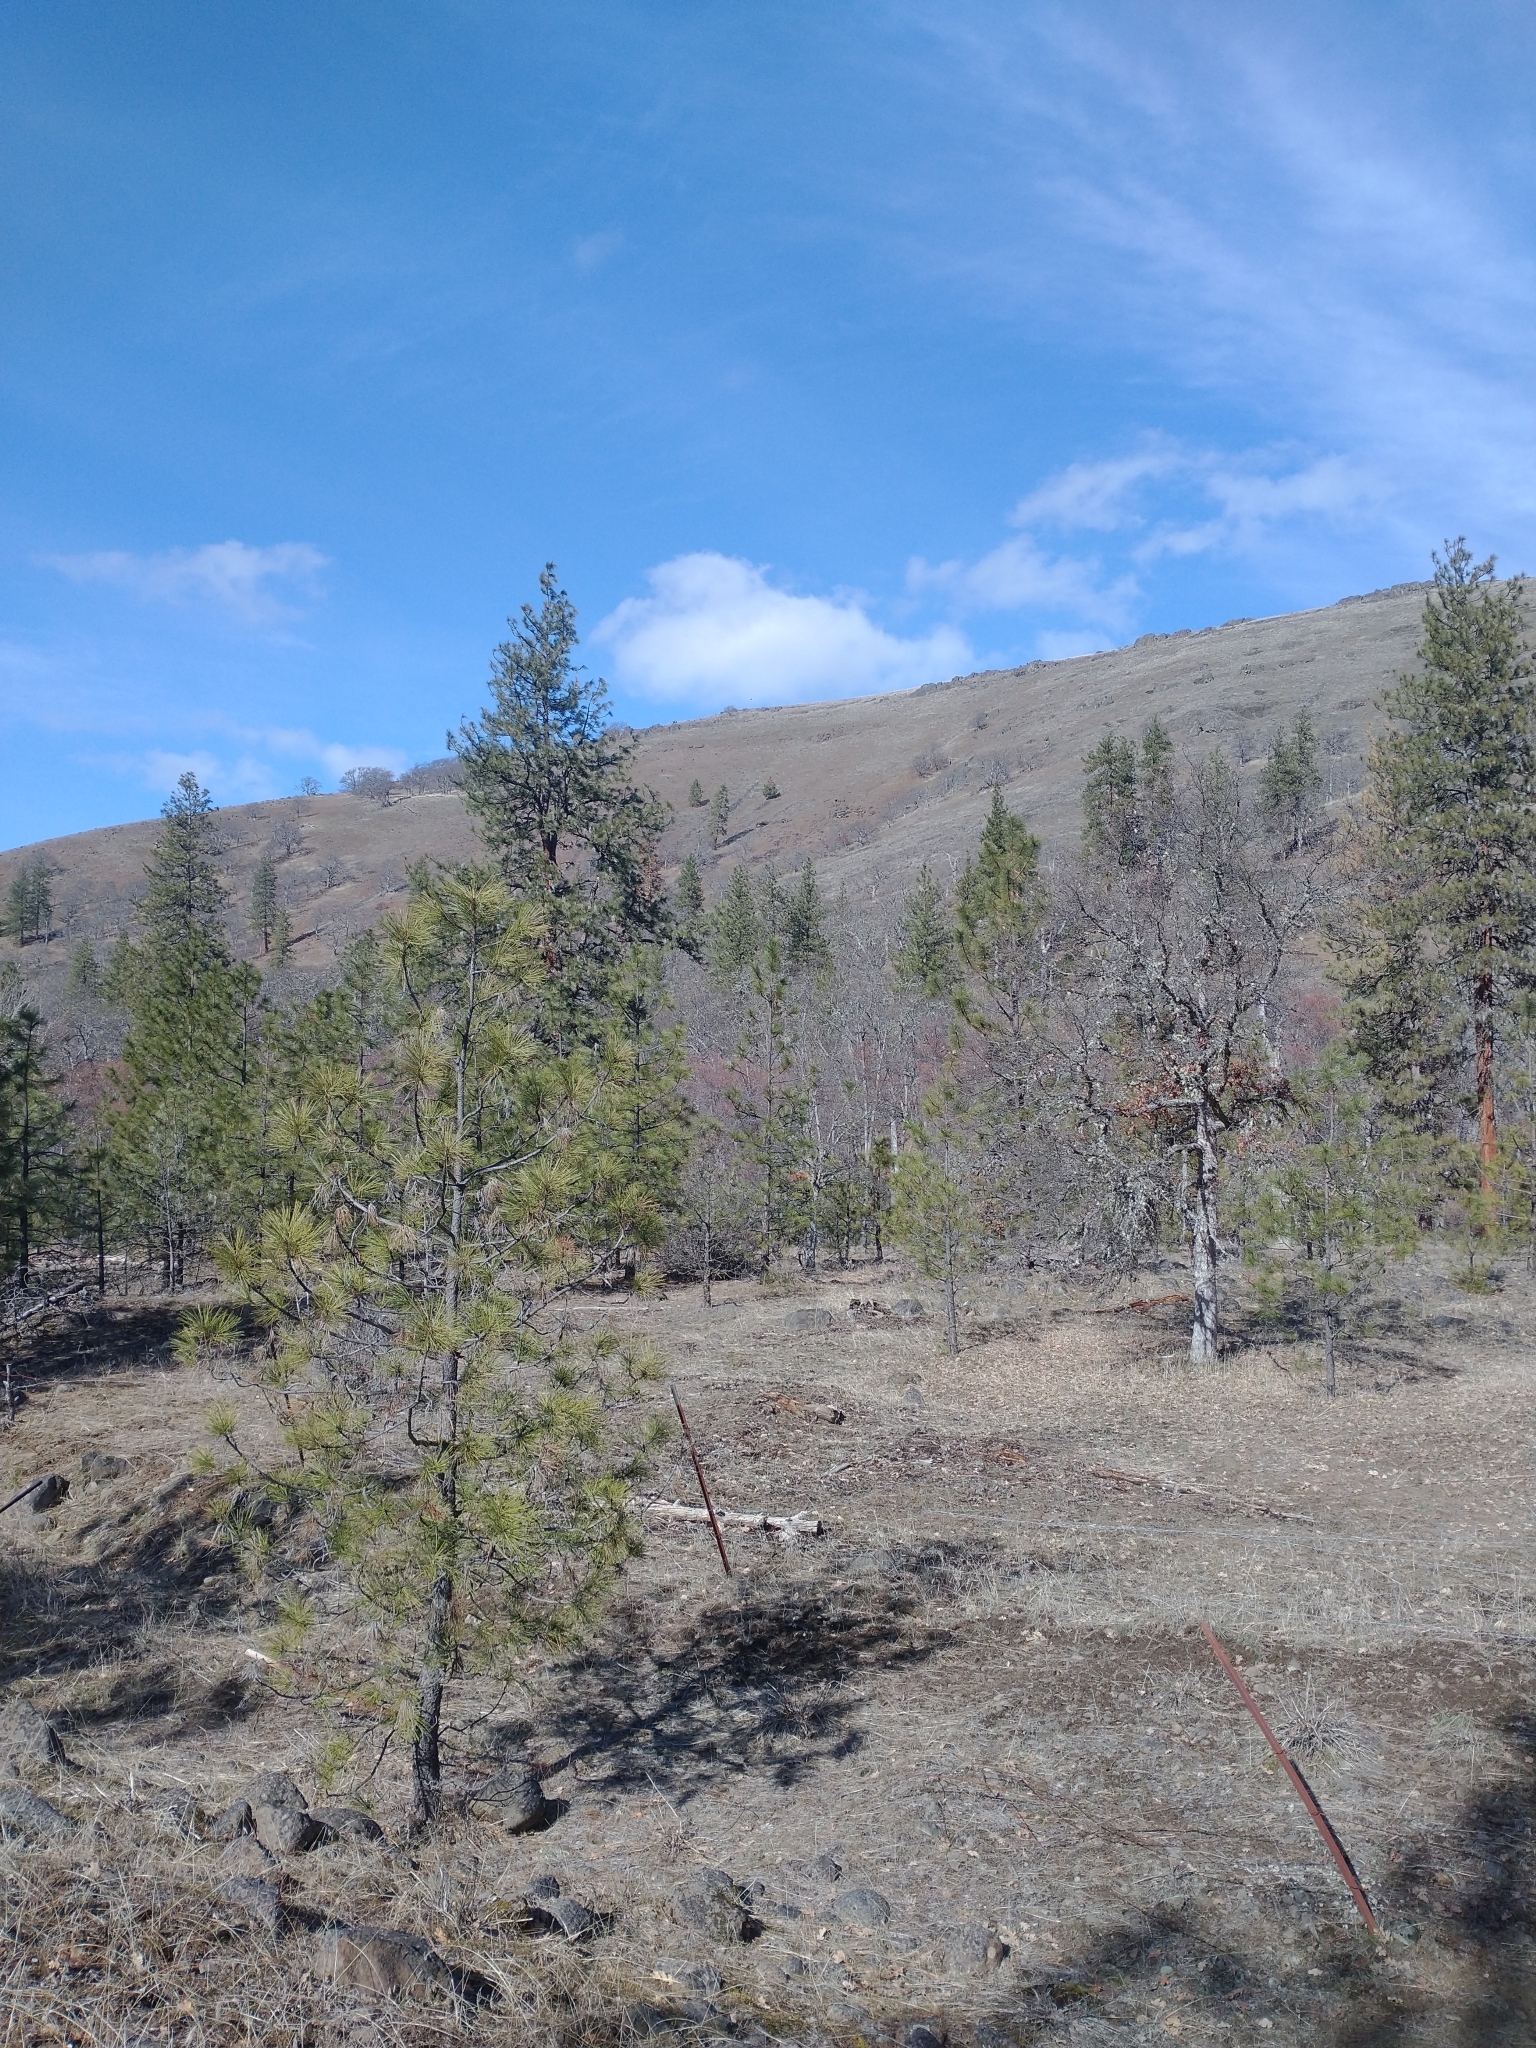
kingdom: Plantae
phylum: Tracheophyta
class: Pinopsida
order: Pinales
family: Pinaceae
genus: Pinus
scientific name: Pinus ponderosa
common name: Western yellow-pine
